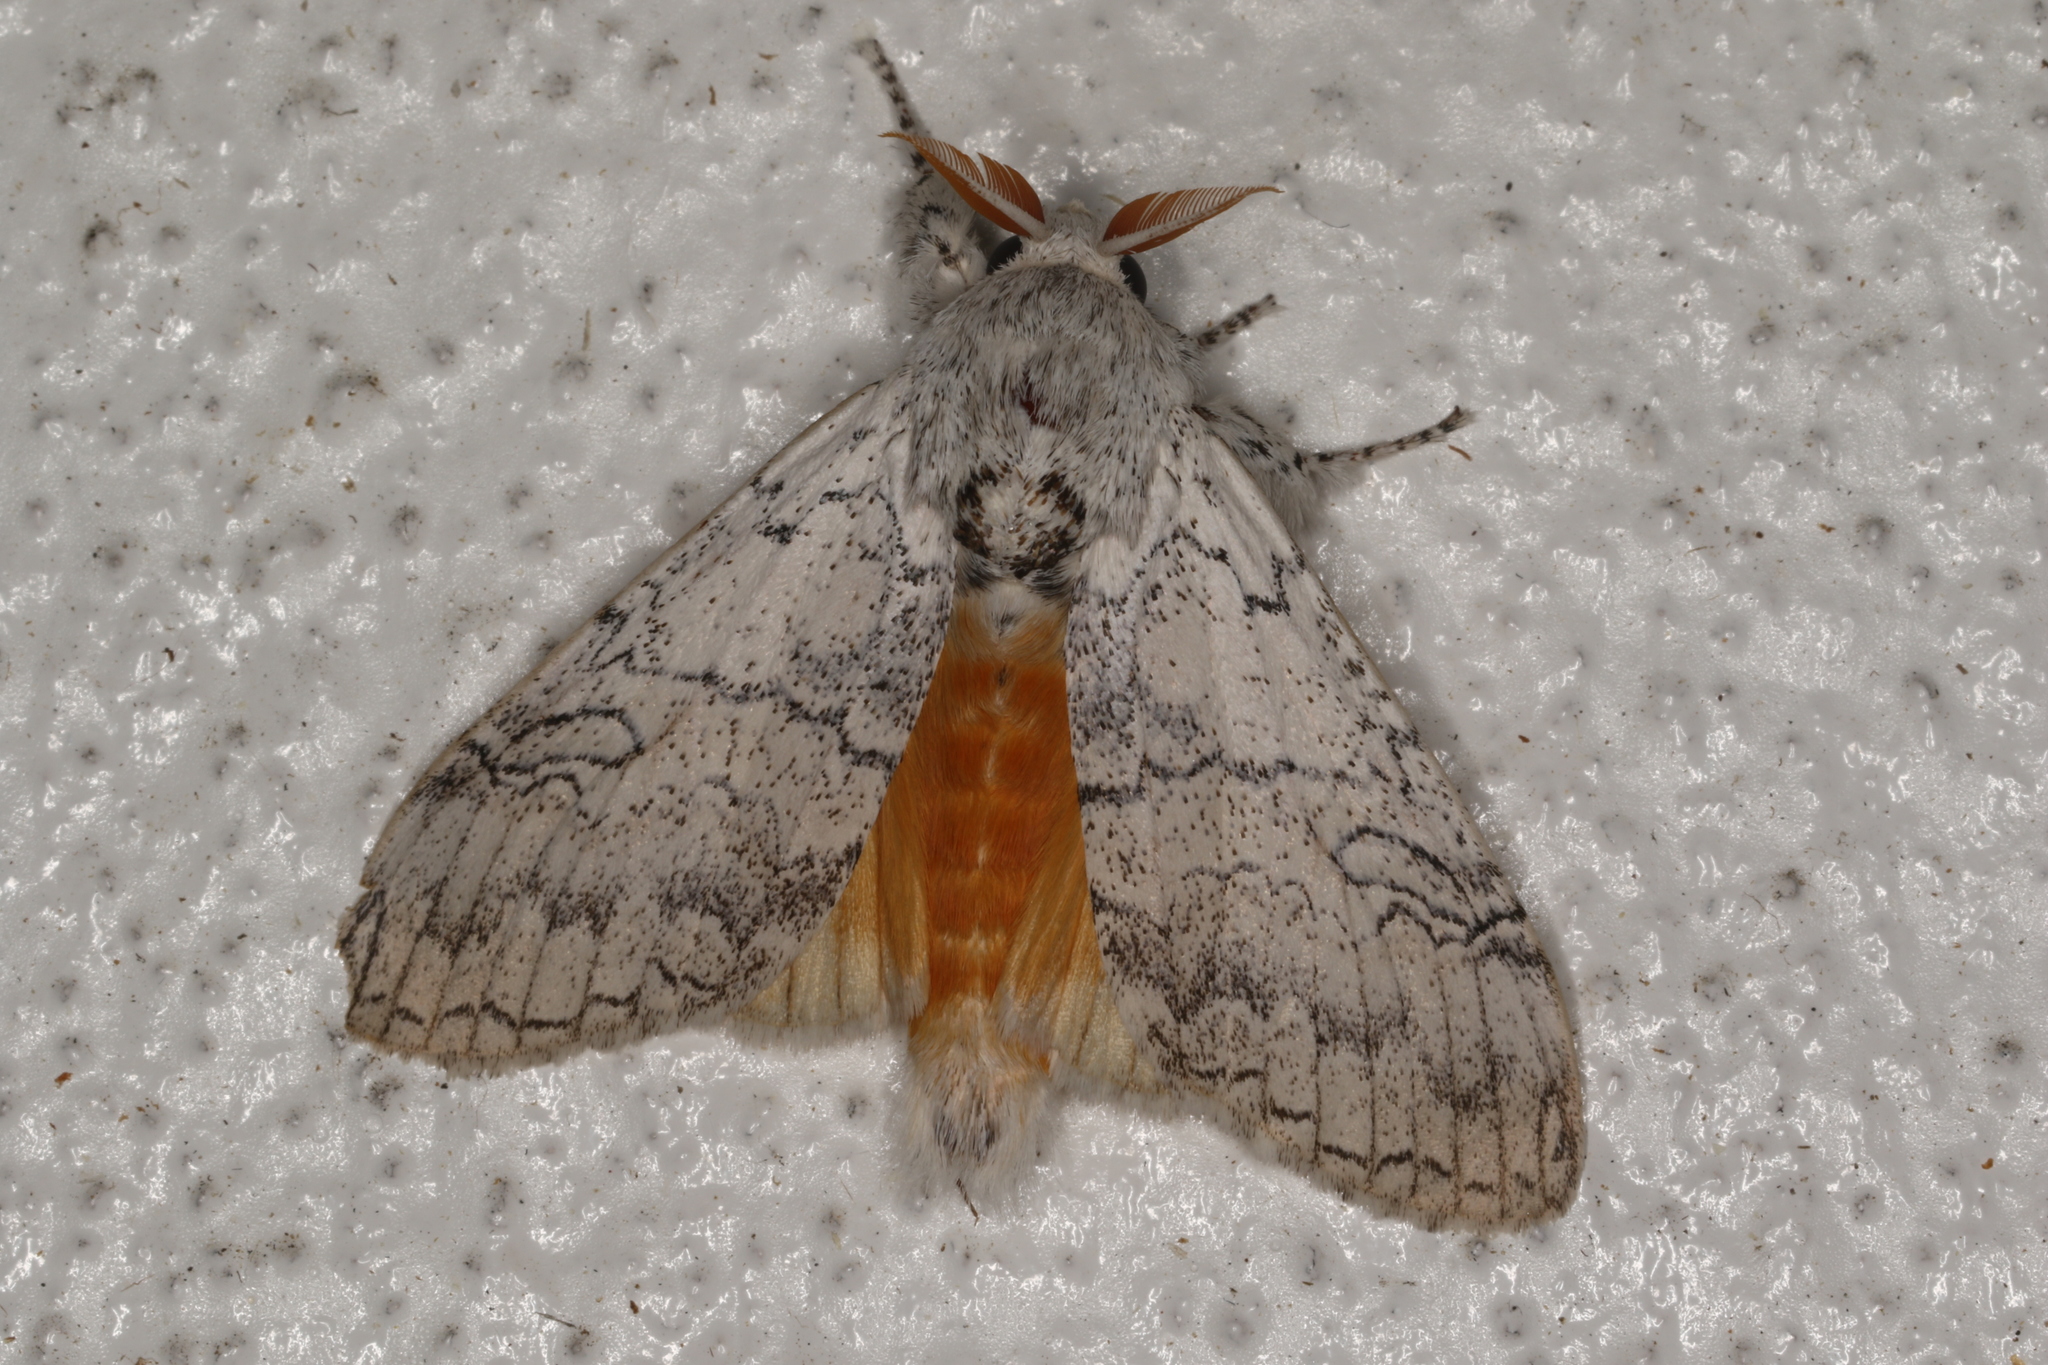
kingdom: Animalia
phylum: Arthropoda
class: Insecta
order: Lepidoptera
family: Erebidae
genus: Calliteara
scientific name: Calliteara farenoides
